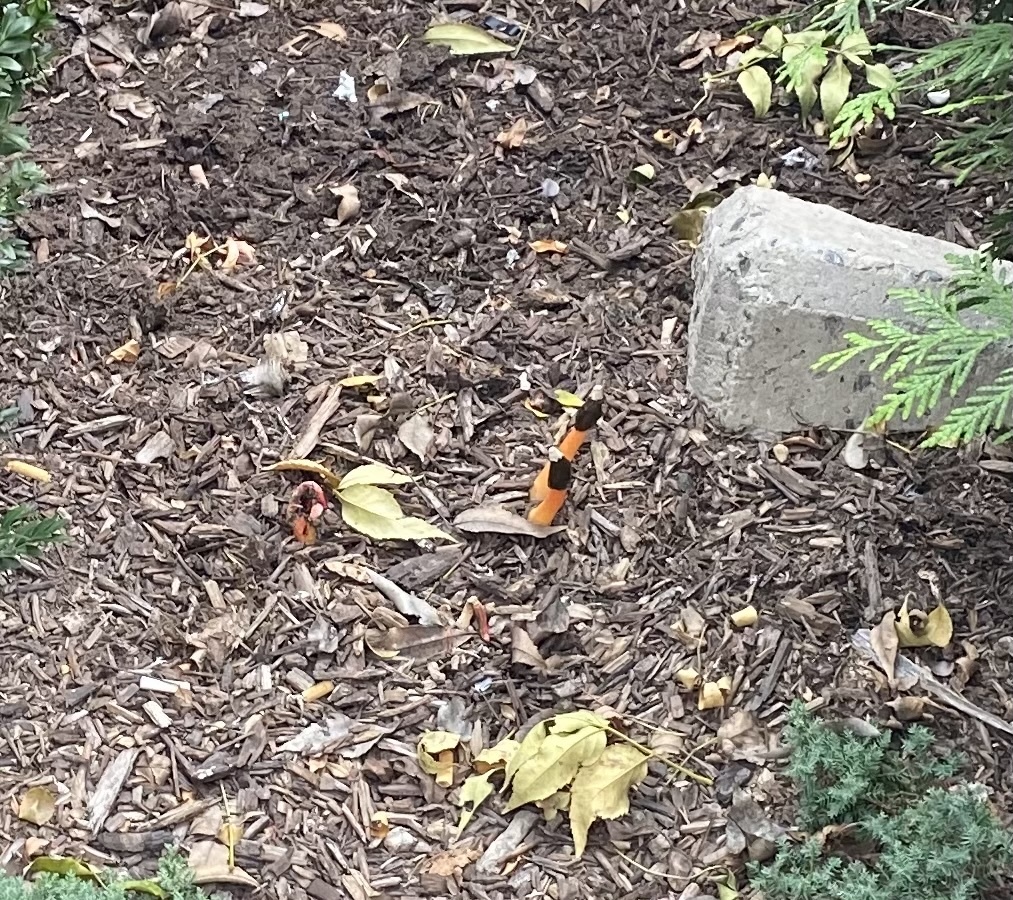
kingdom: Fungi
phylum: Basidiomycota
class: Agaricomycetes
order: Phallales
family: Phallaceae
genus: Phallus
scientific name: Phallus rugulosus
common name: Wrinkly stinkhorn
